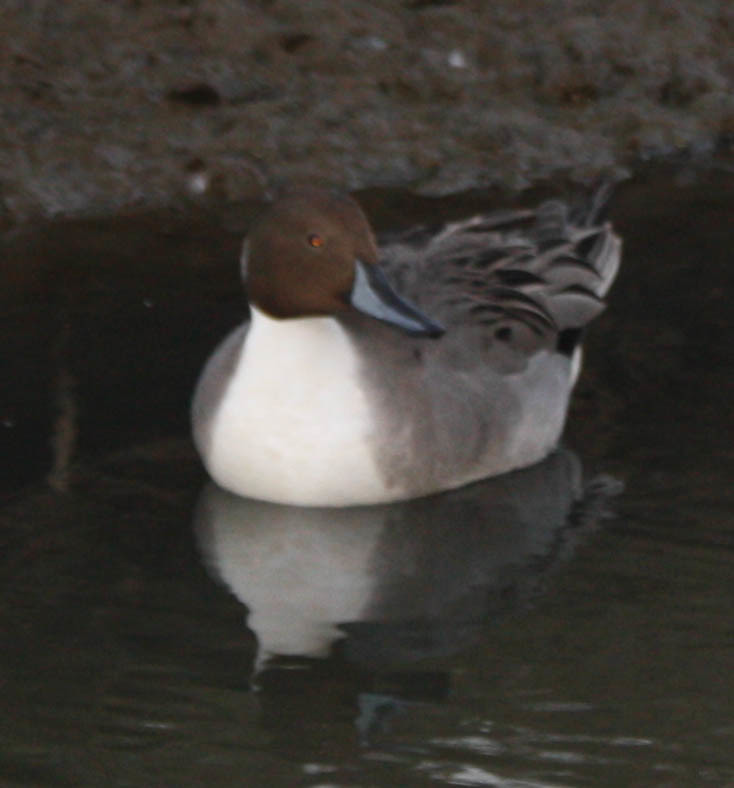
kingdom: Animalia
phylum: Chordata
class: Aves
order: Anseriformes
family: Anatidae
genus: Anas
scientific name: Anas acuta
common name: Northern pintail
